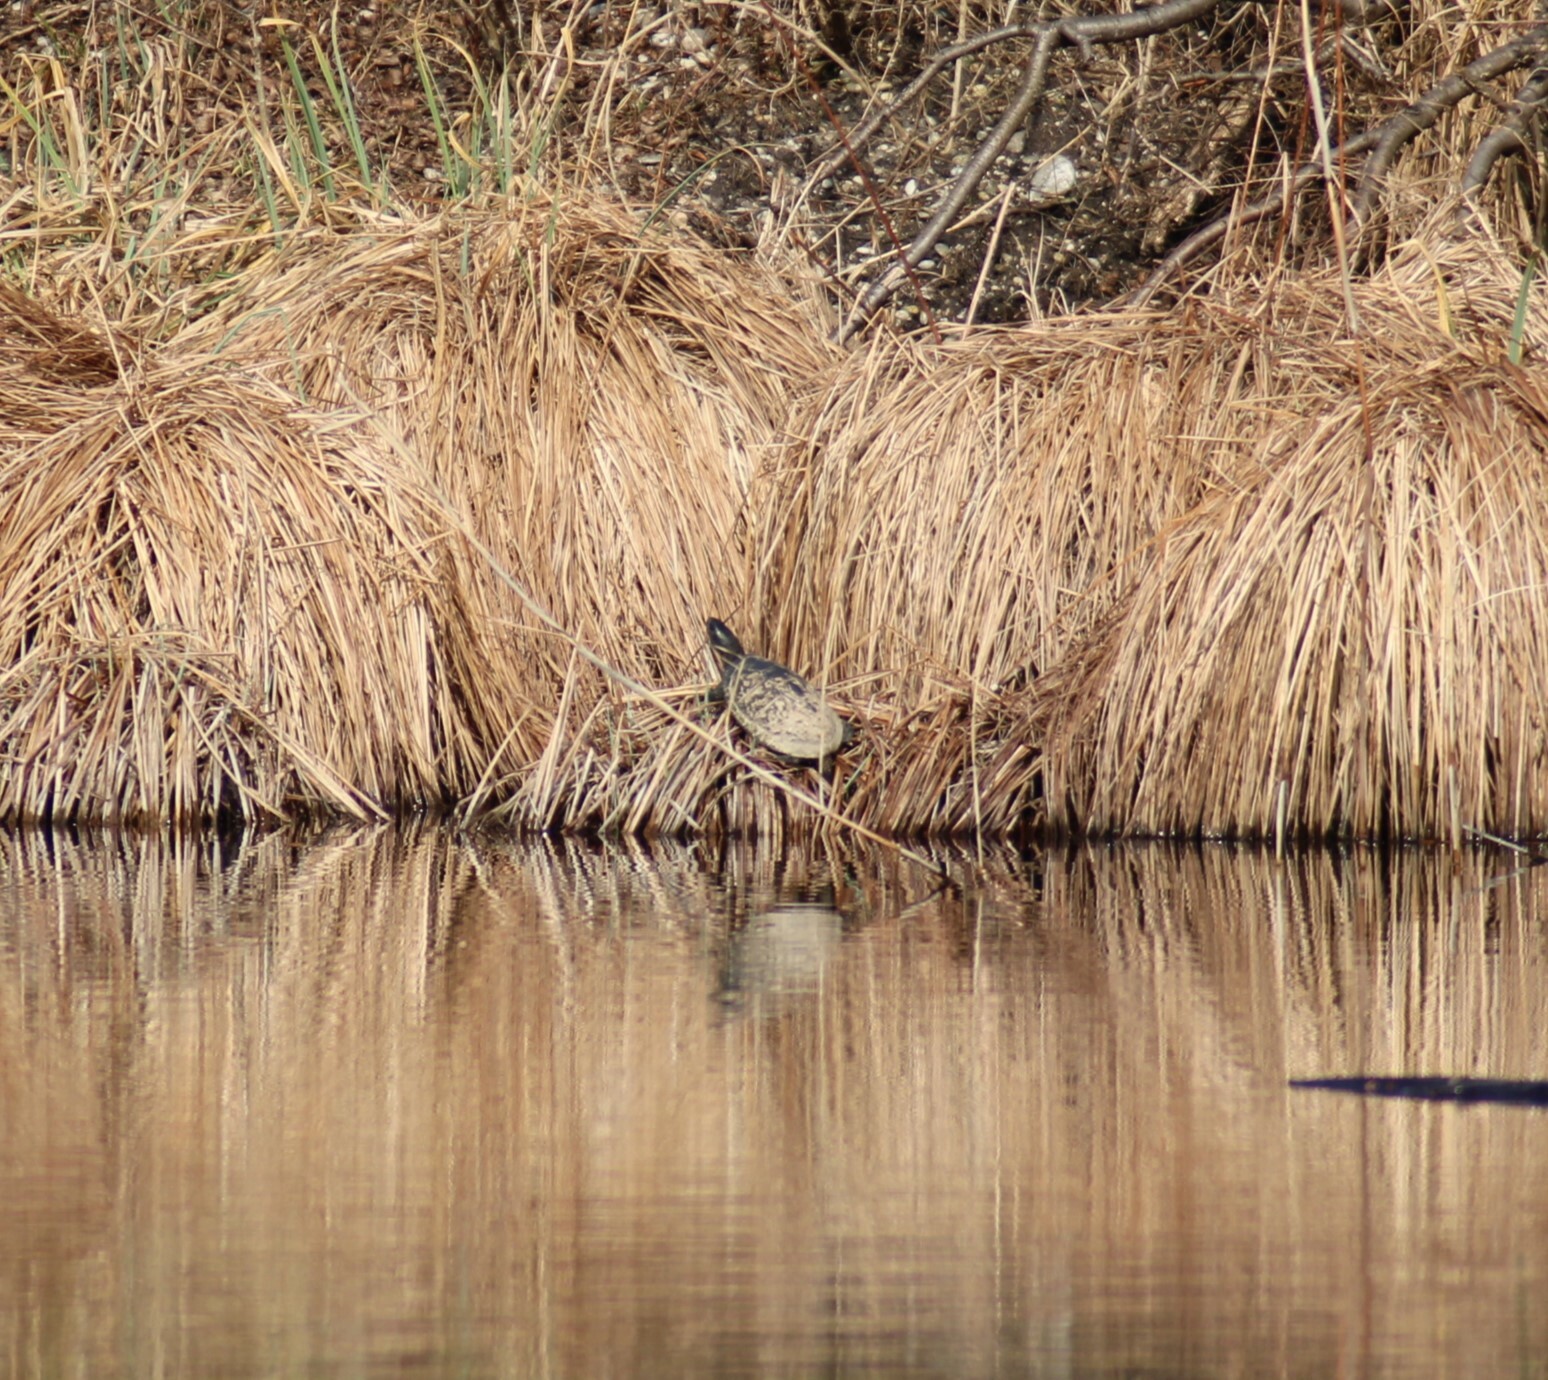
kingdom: Animalia
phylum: Chordata
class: Testudines
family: Emydidae
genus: Emys
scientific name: Emys orbicularis
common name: European pond turtle
